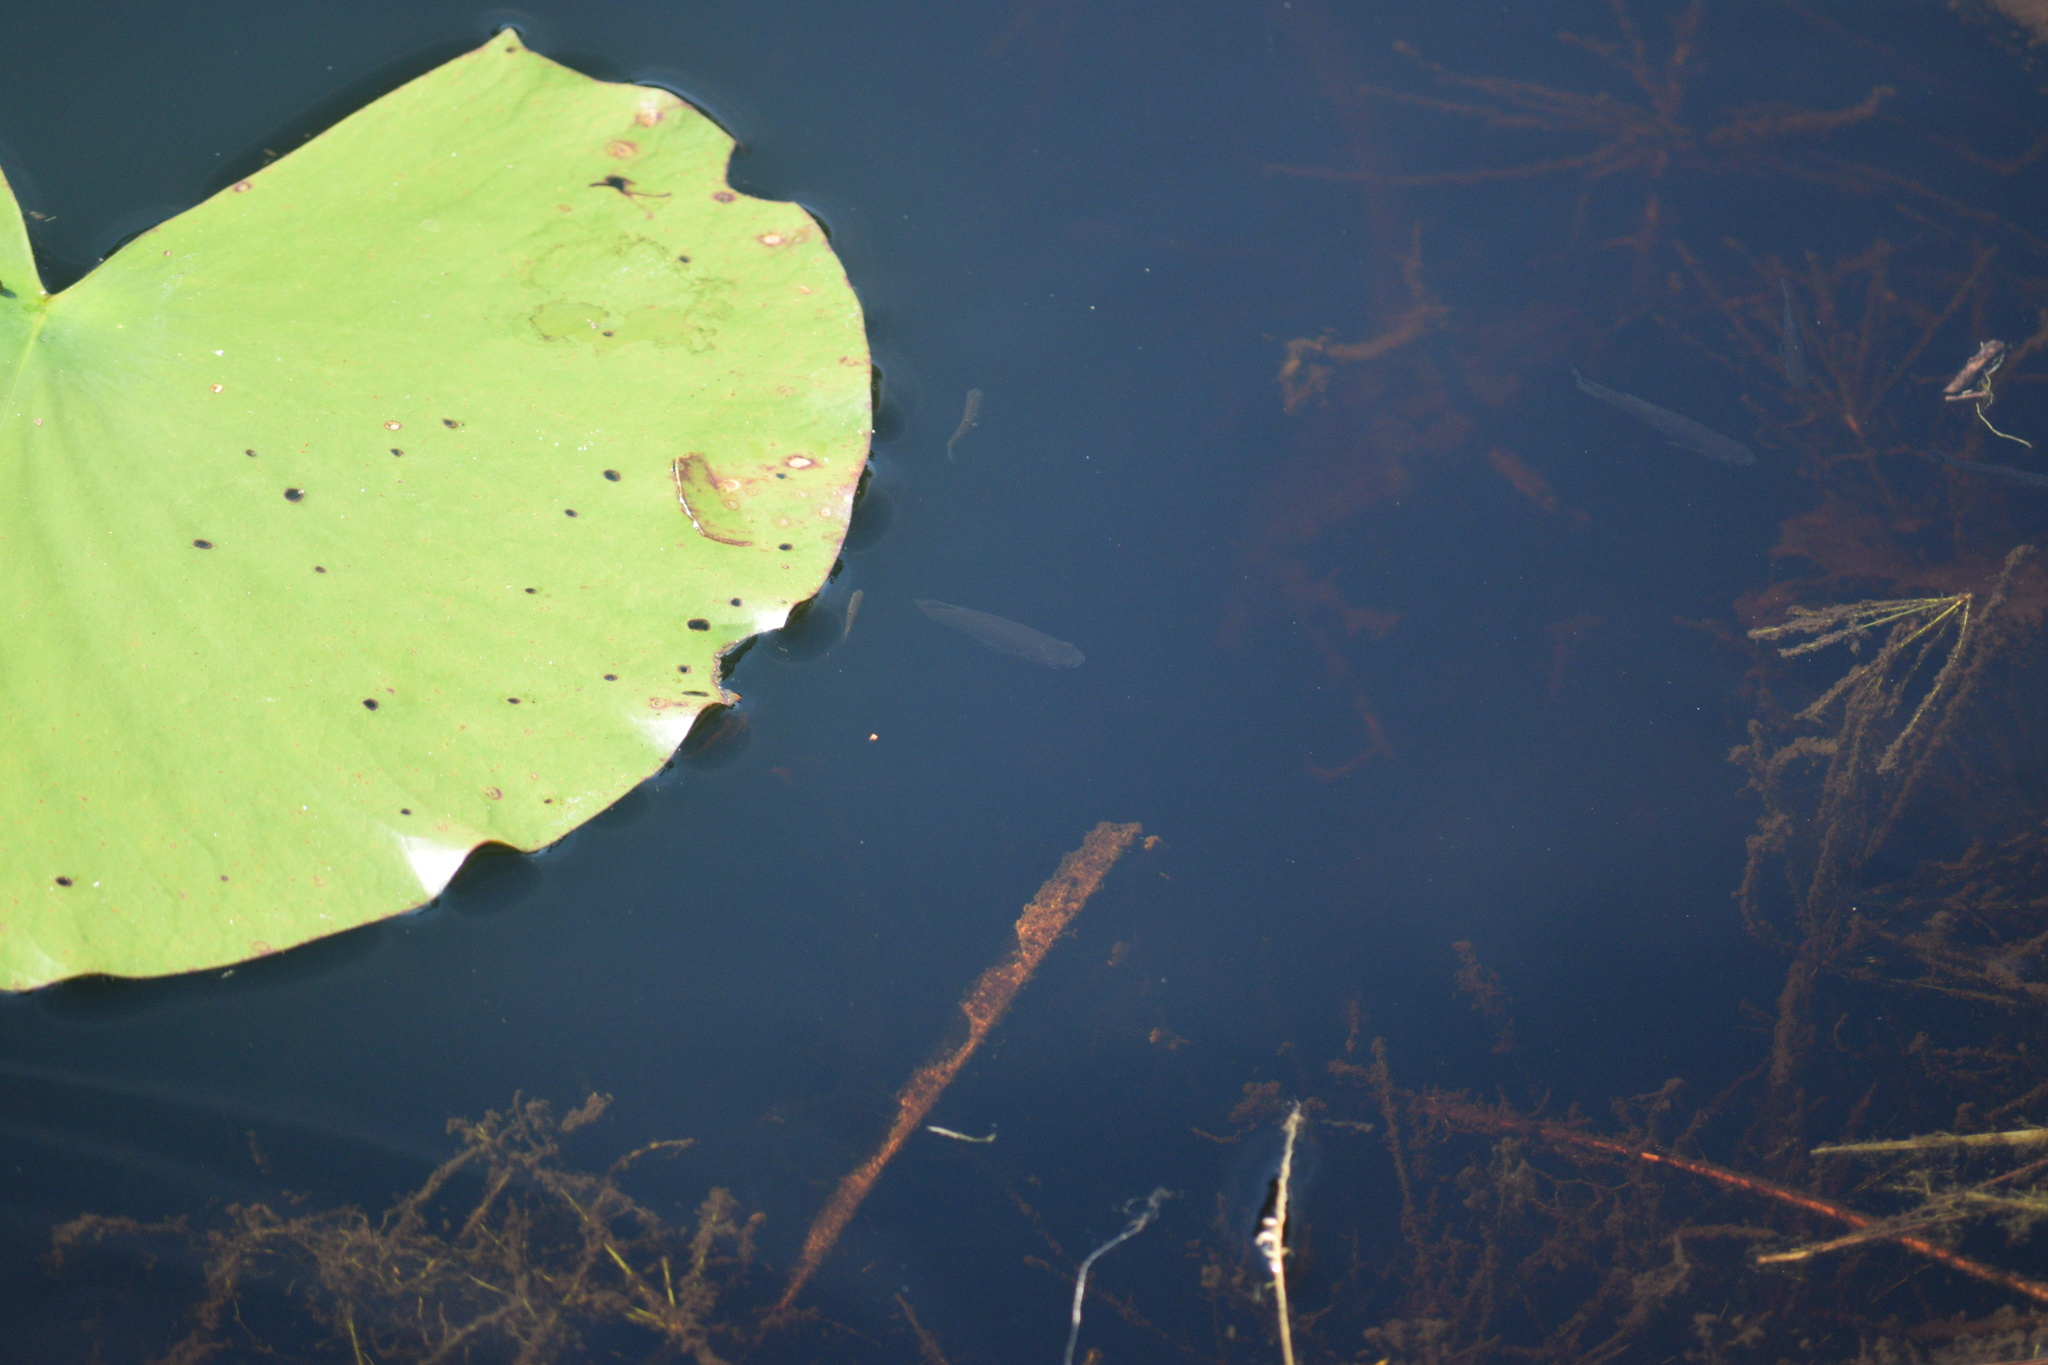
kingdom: Animalia
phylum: Chordata
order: Cyprinodontiformes
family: Poeciliidae
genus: Gambusia
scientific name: Gambusia holbrooki
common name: Eastern mosquitofish
